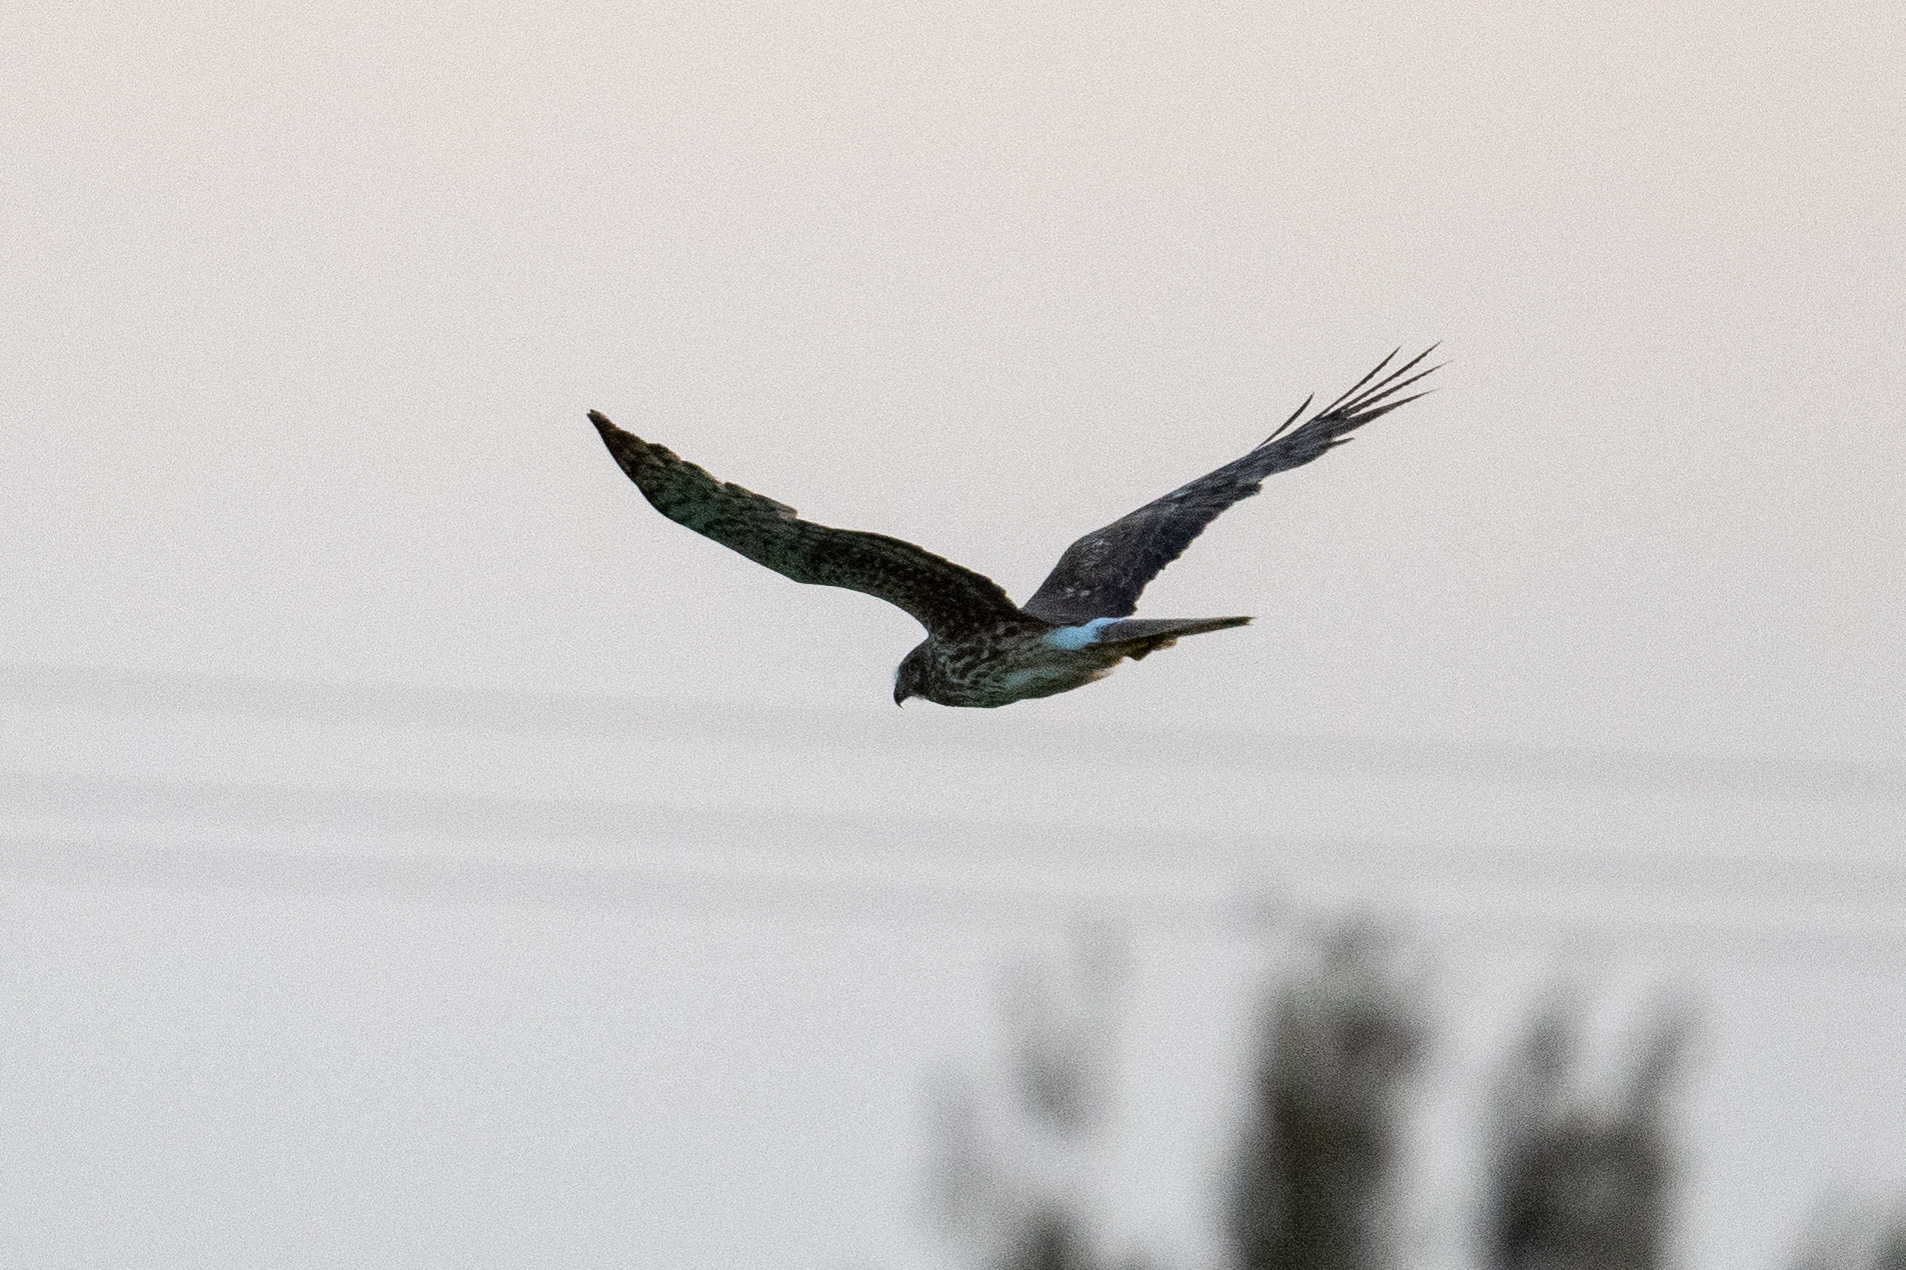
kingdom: Animalia
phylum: Chordata
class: Aves
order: Accipitriformes
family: Accipitridae
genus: Circus
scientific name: Circus cyaneus
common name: Hen harrier
